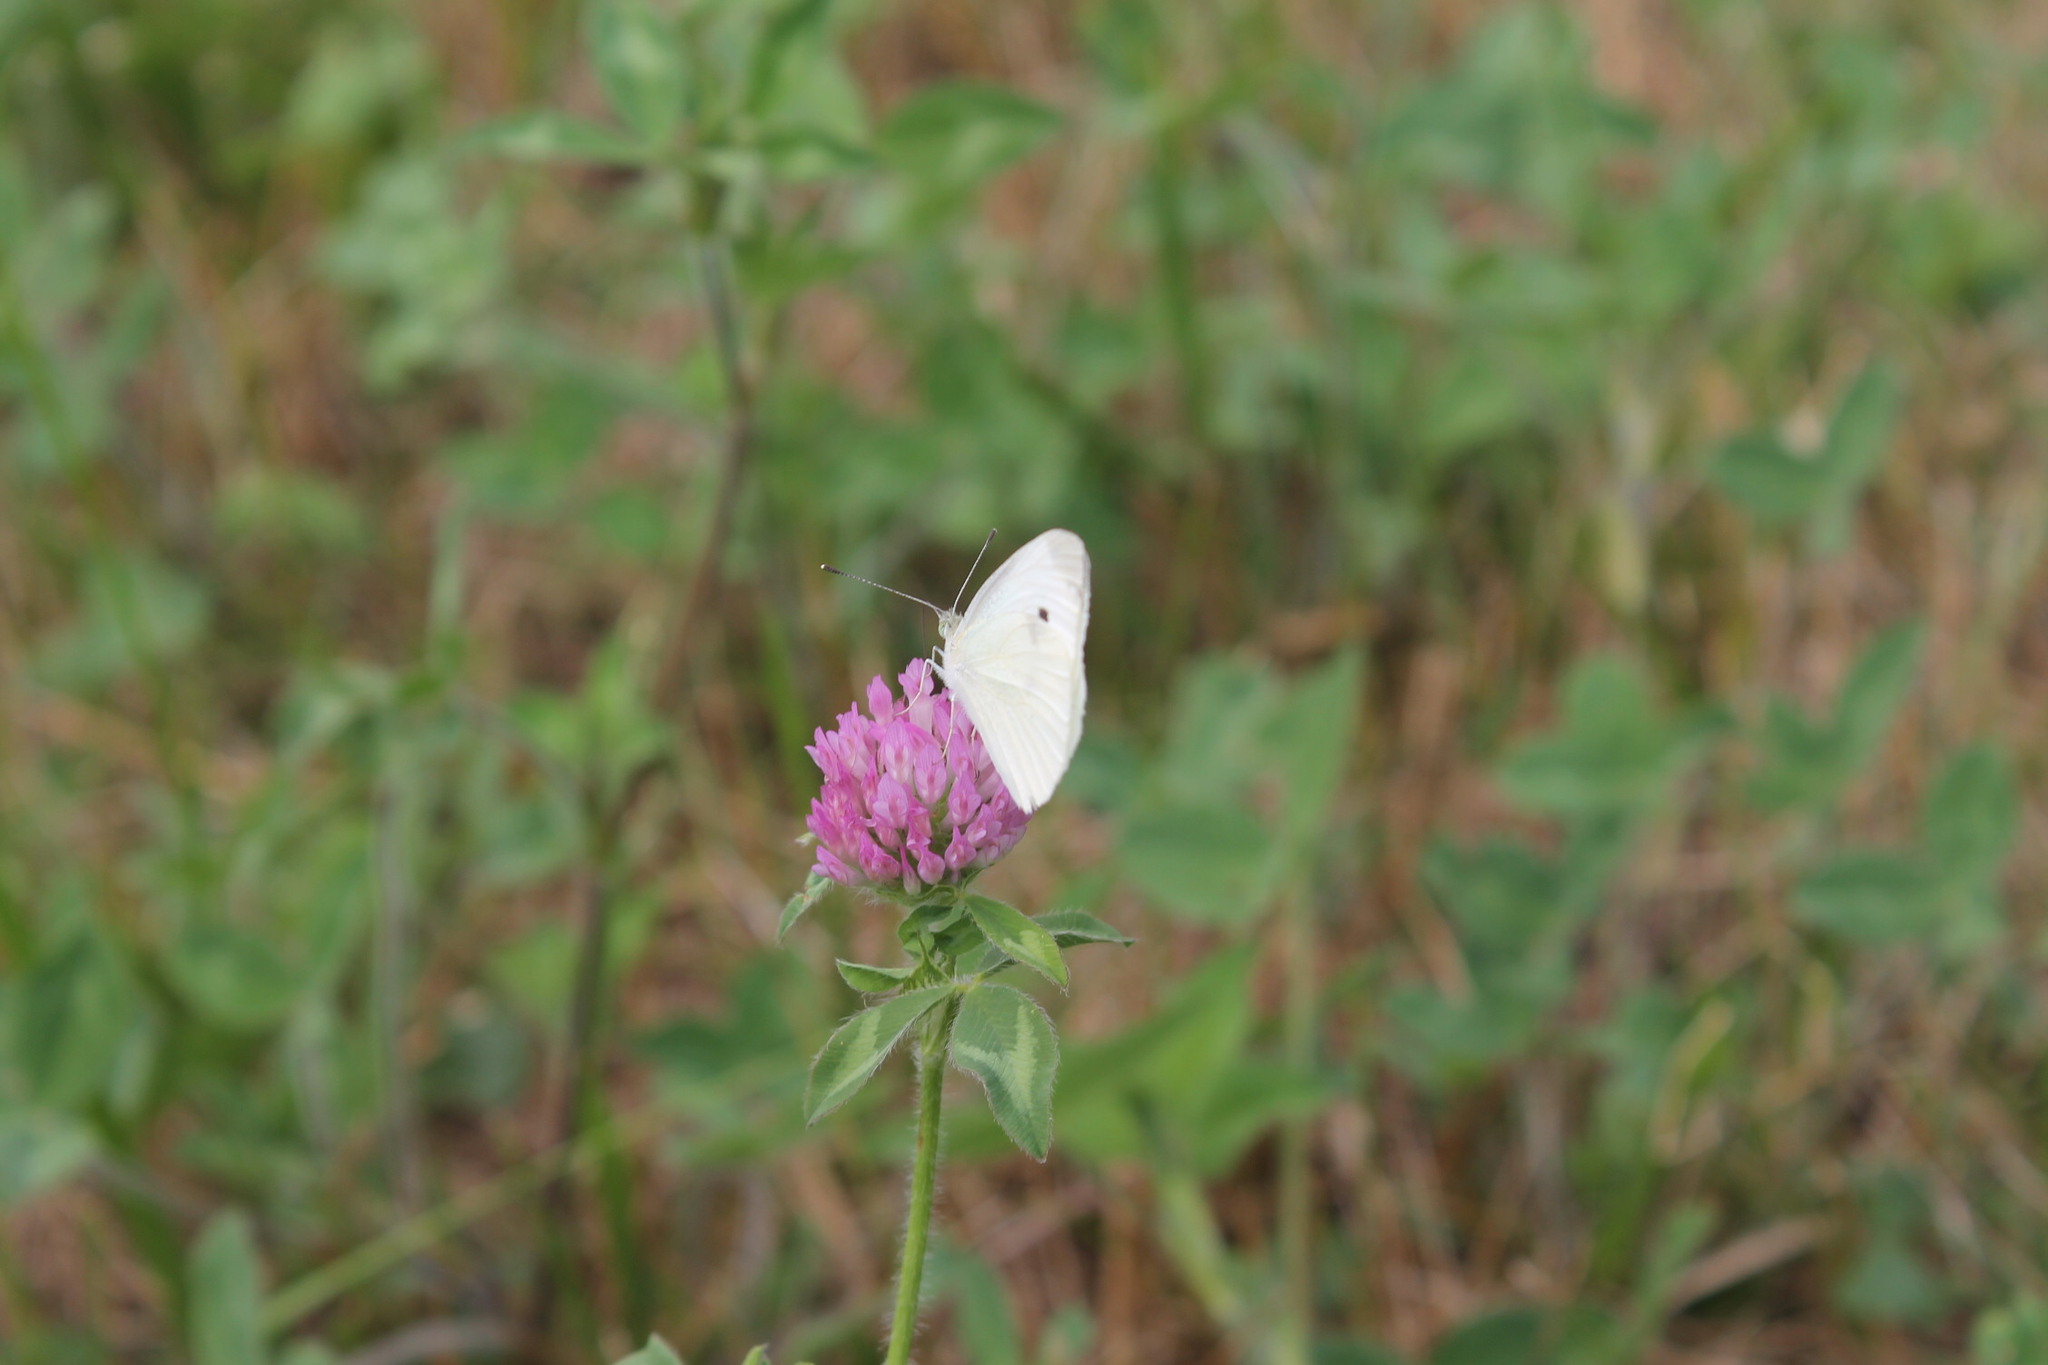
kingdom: Animalia
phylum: Arthropoda
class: Insecta
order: Lepidoptera
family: Pieridae
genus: Pieris
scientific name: Pieris rapae
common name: Small white
